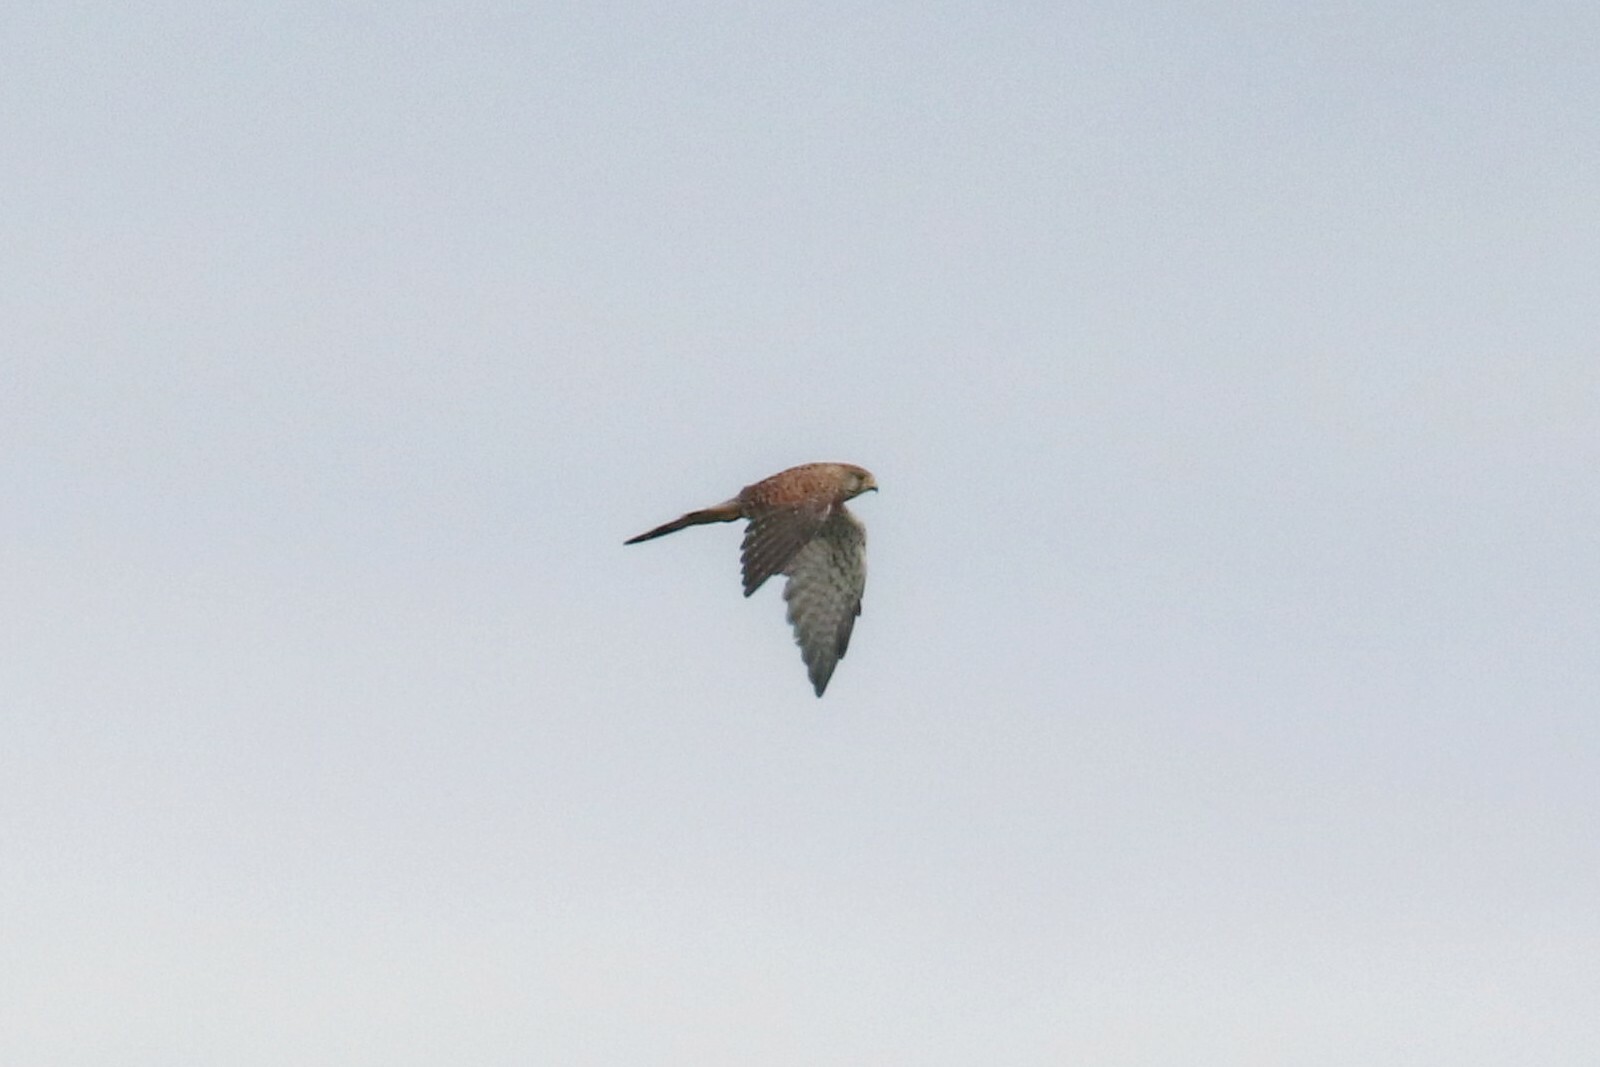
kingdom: Animalia
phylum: Chordata
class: Aves
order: Falconiformes
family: Falconidae
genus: Falco
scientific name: Falco tinnunculus
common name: Common kestrel
